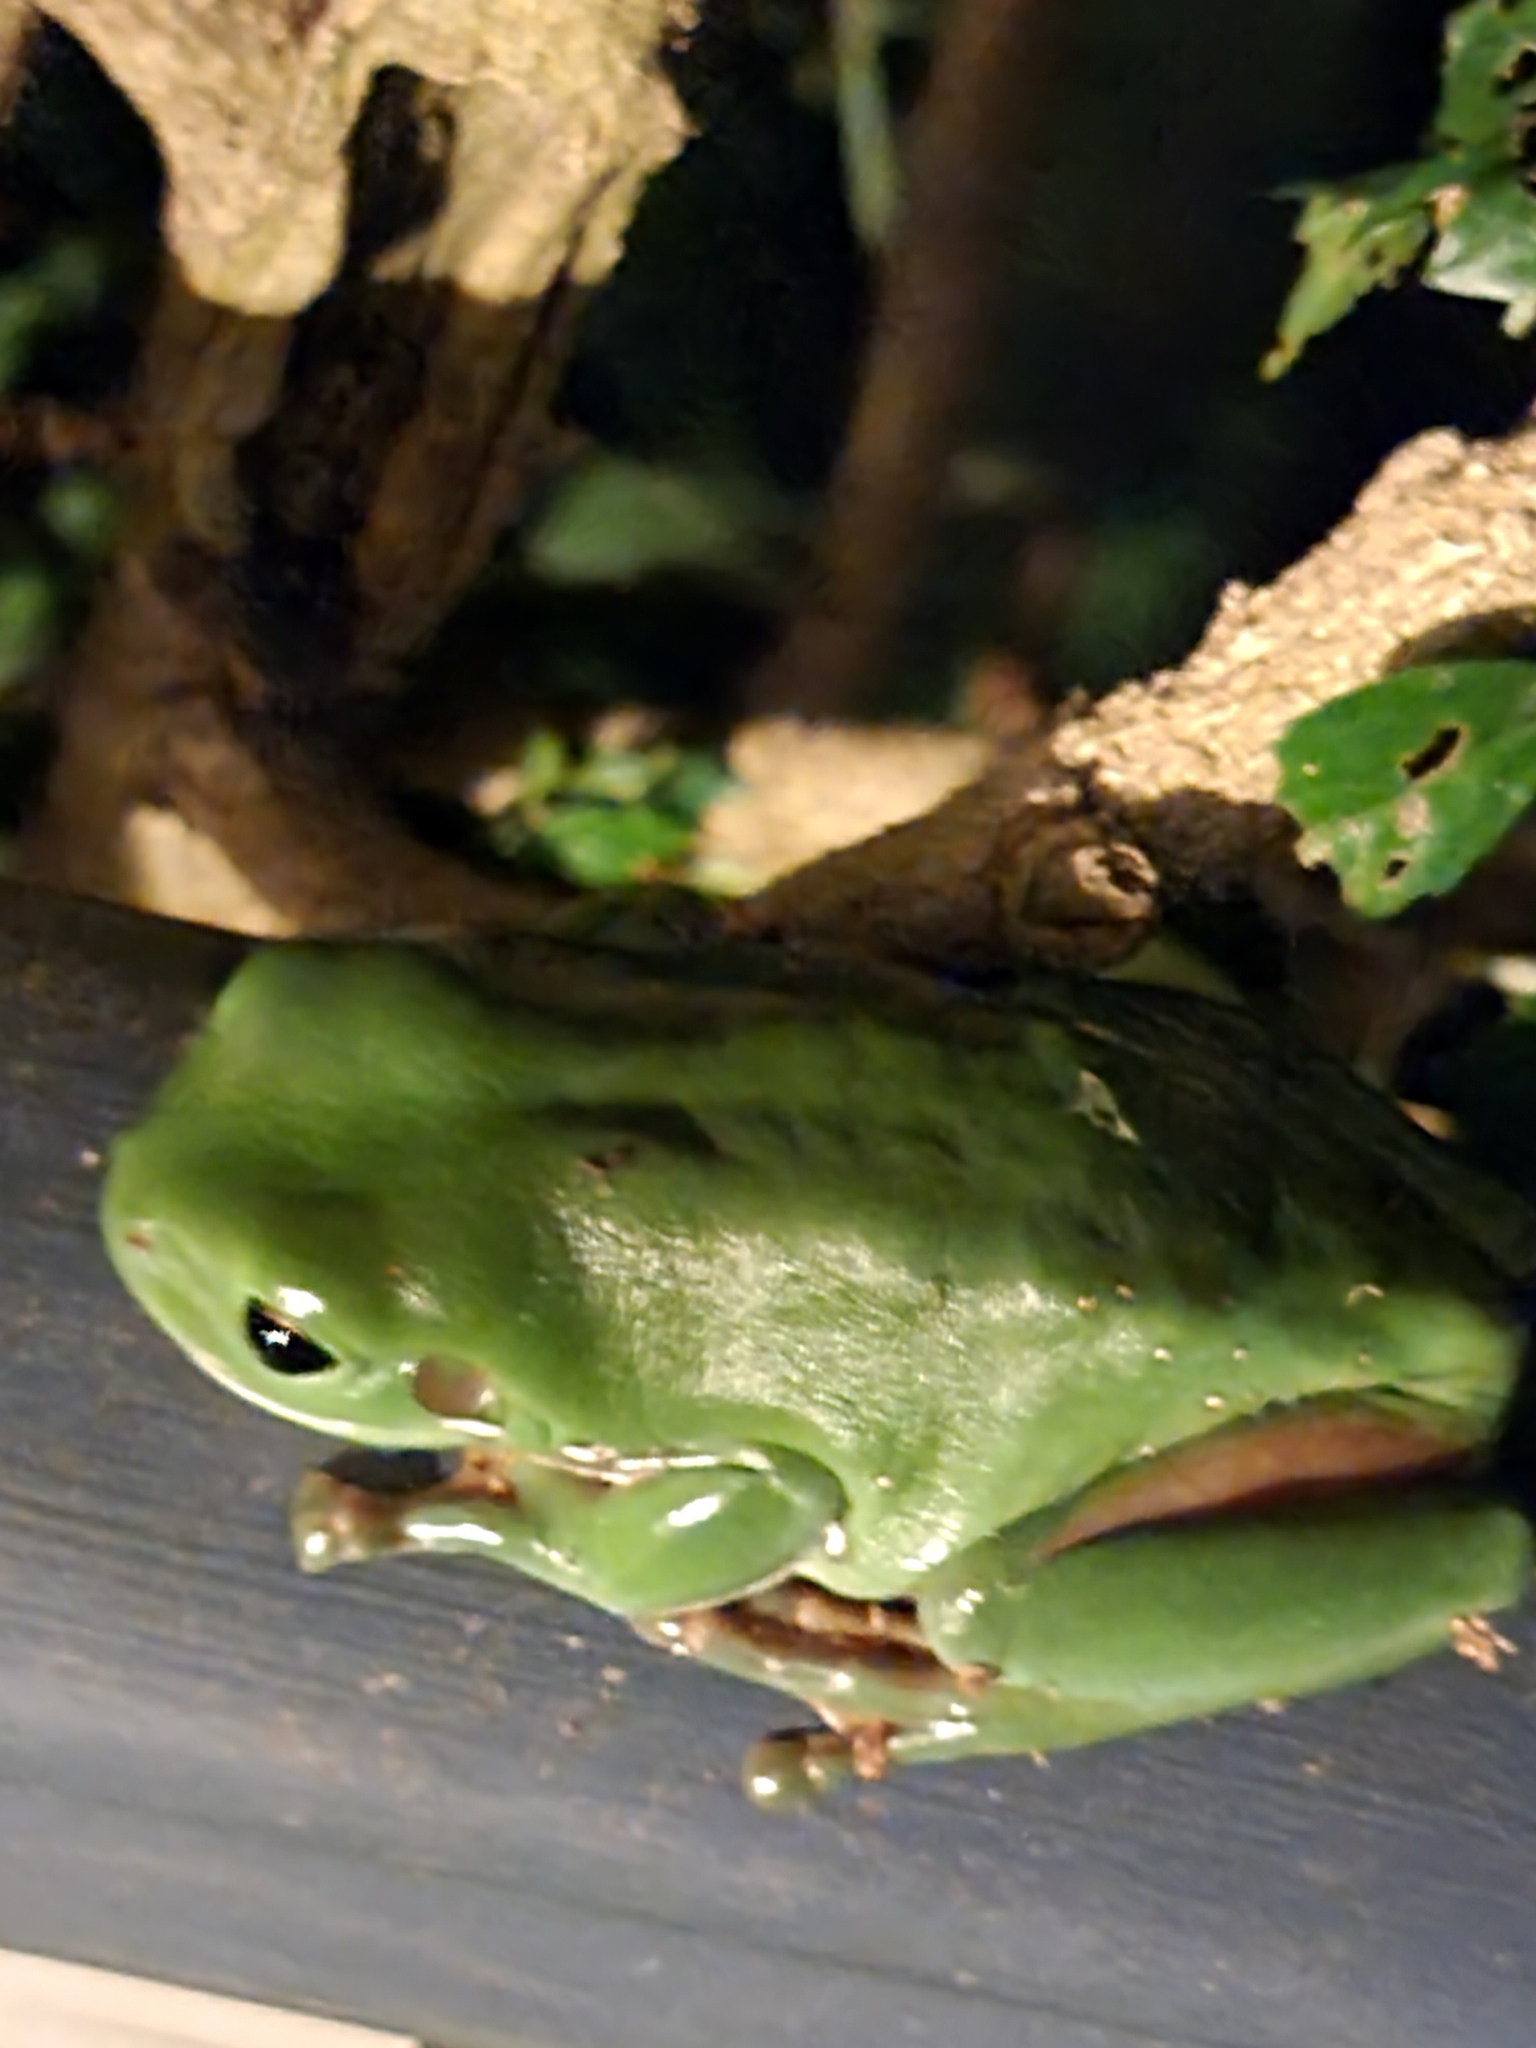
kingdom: Animalia
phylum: Chordata
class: Amphibia
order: Anura
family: Pelodryadidae
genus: Ranoidea
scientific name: Ranoidea caerulea
